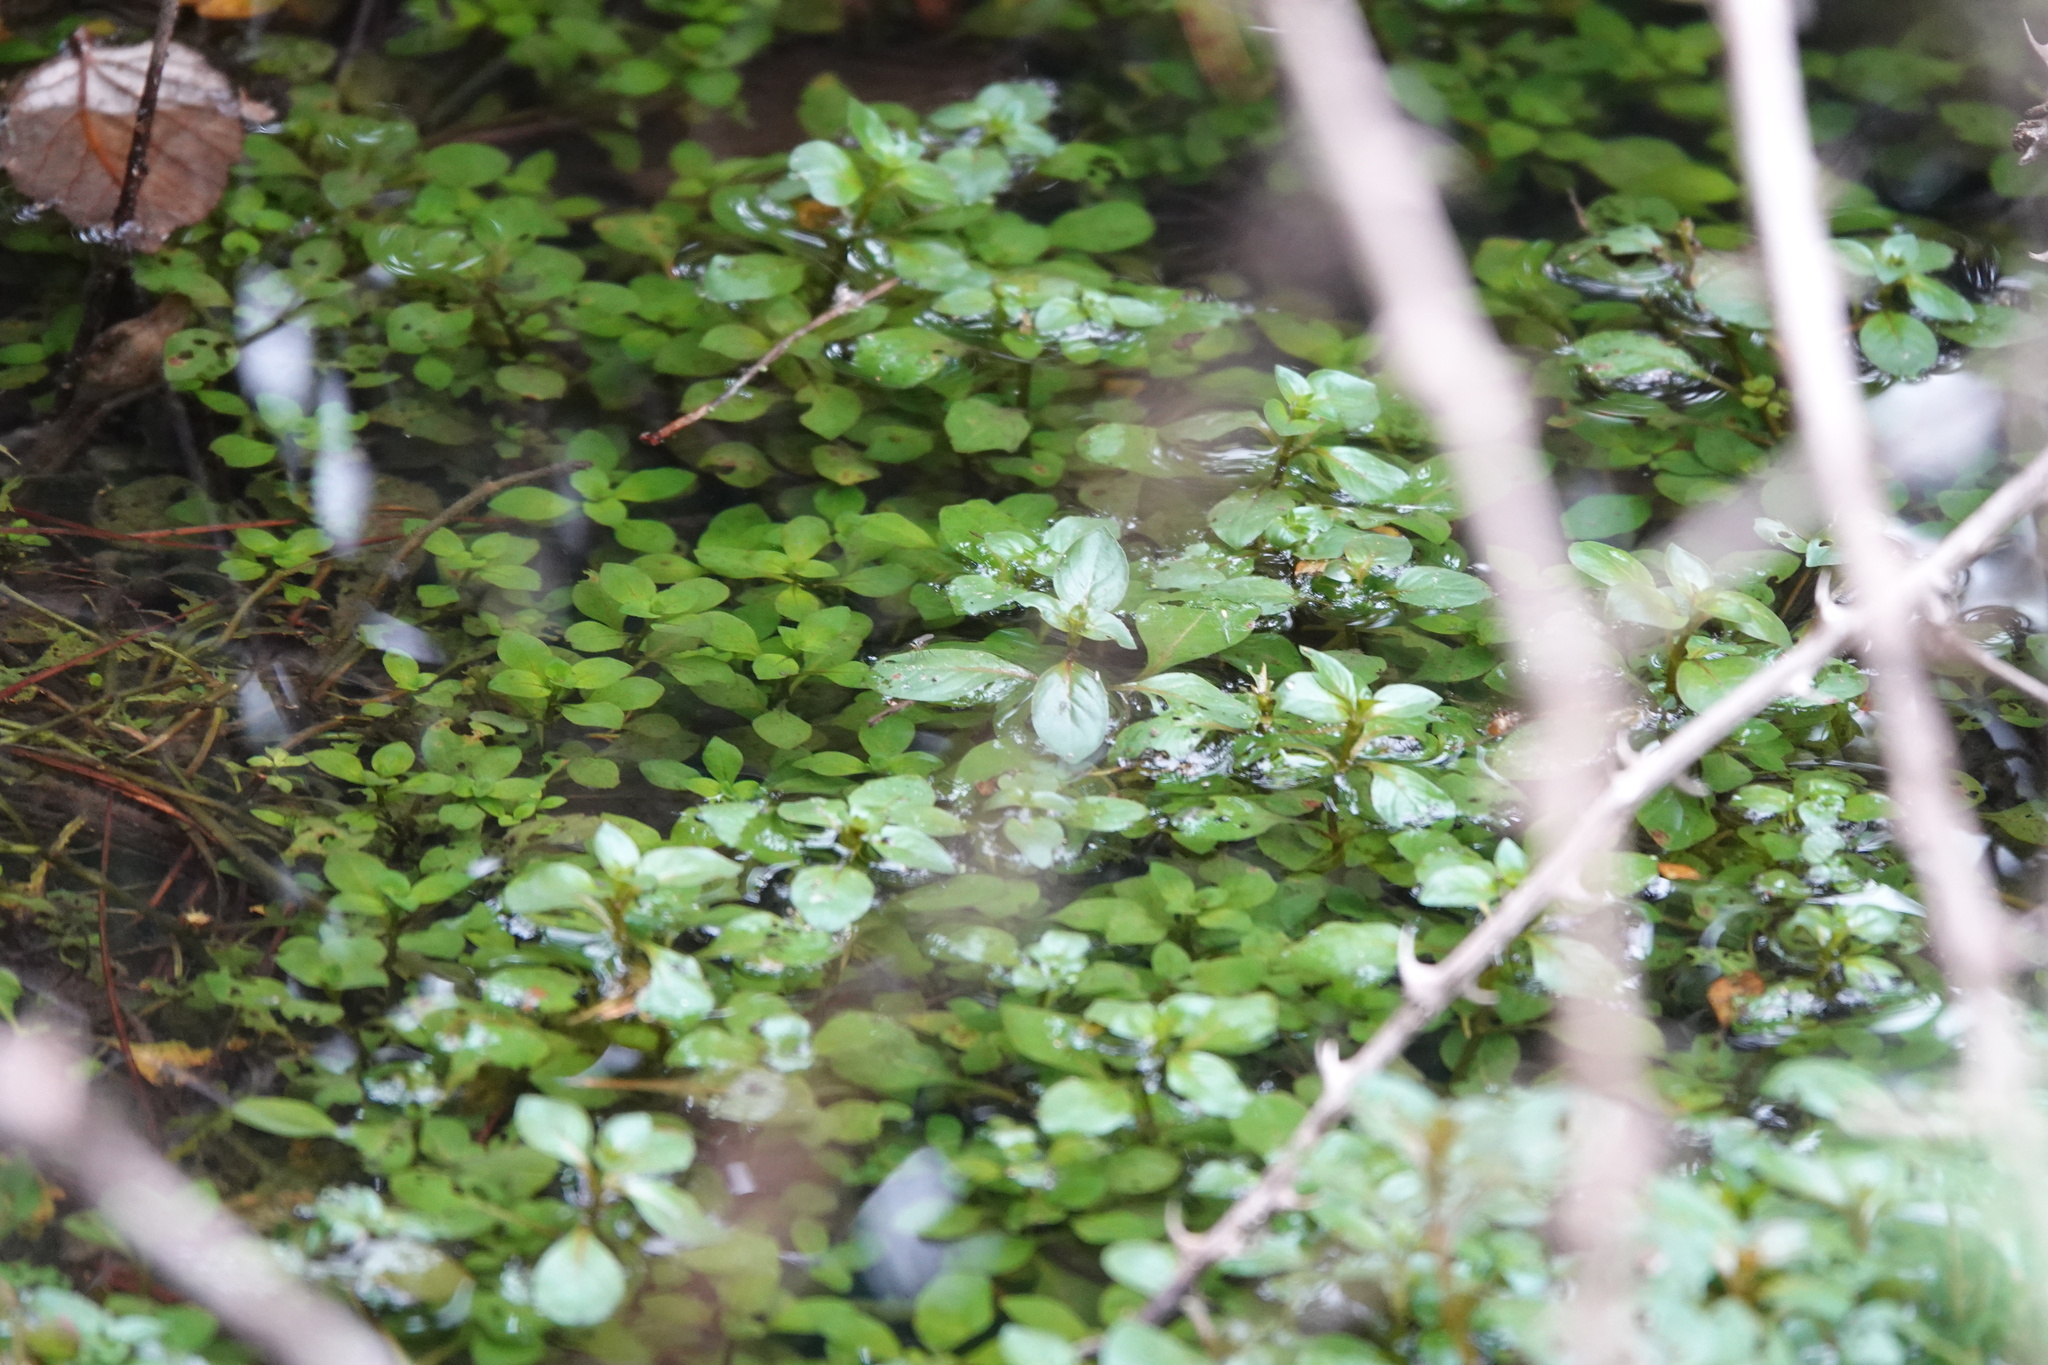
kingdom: Plantae
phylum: Tracheophyta
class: Magnoliopsida
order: Myrtales
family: Onagraceae
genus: Ludwigia
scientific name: Ludwigia palustris
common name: Hampshire-purslane
